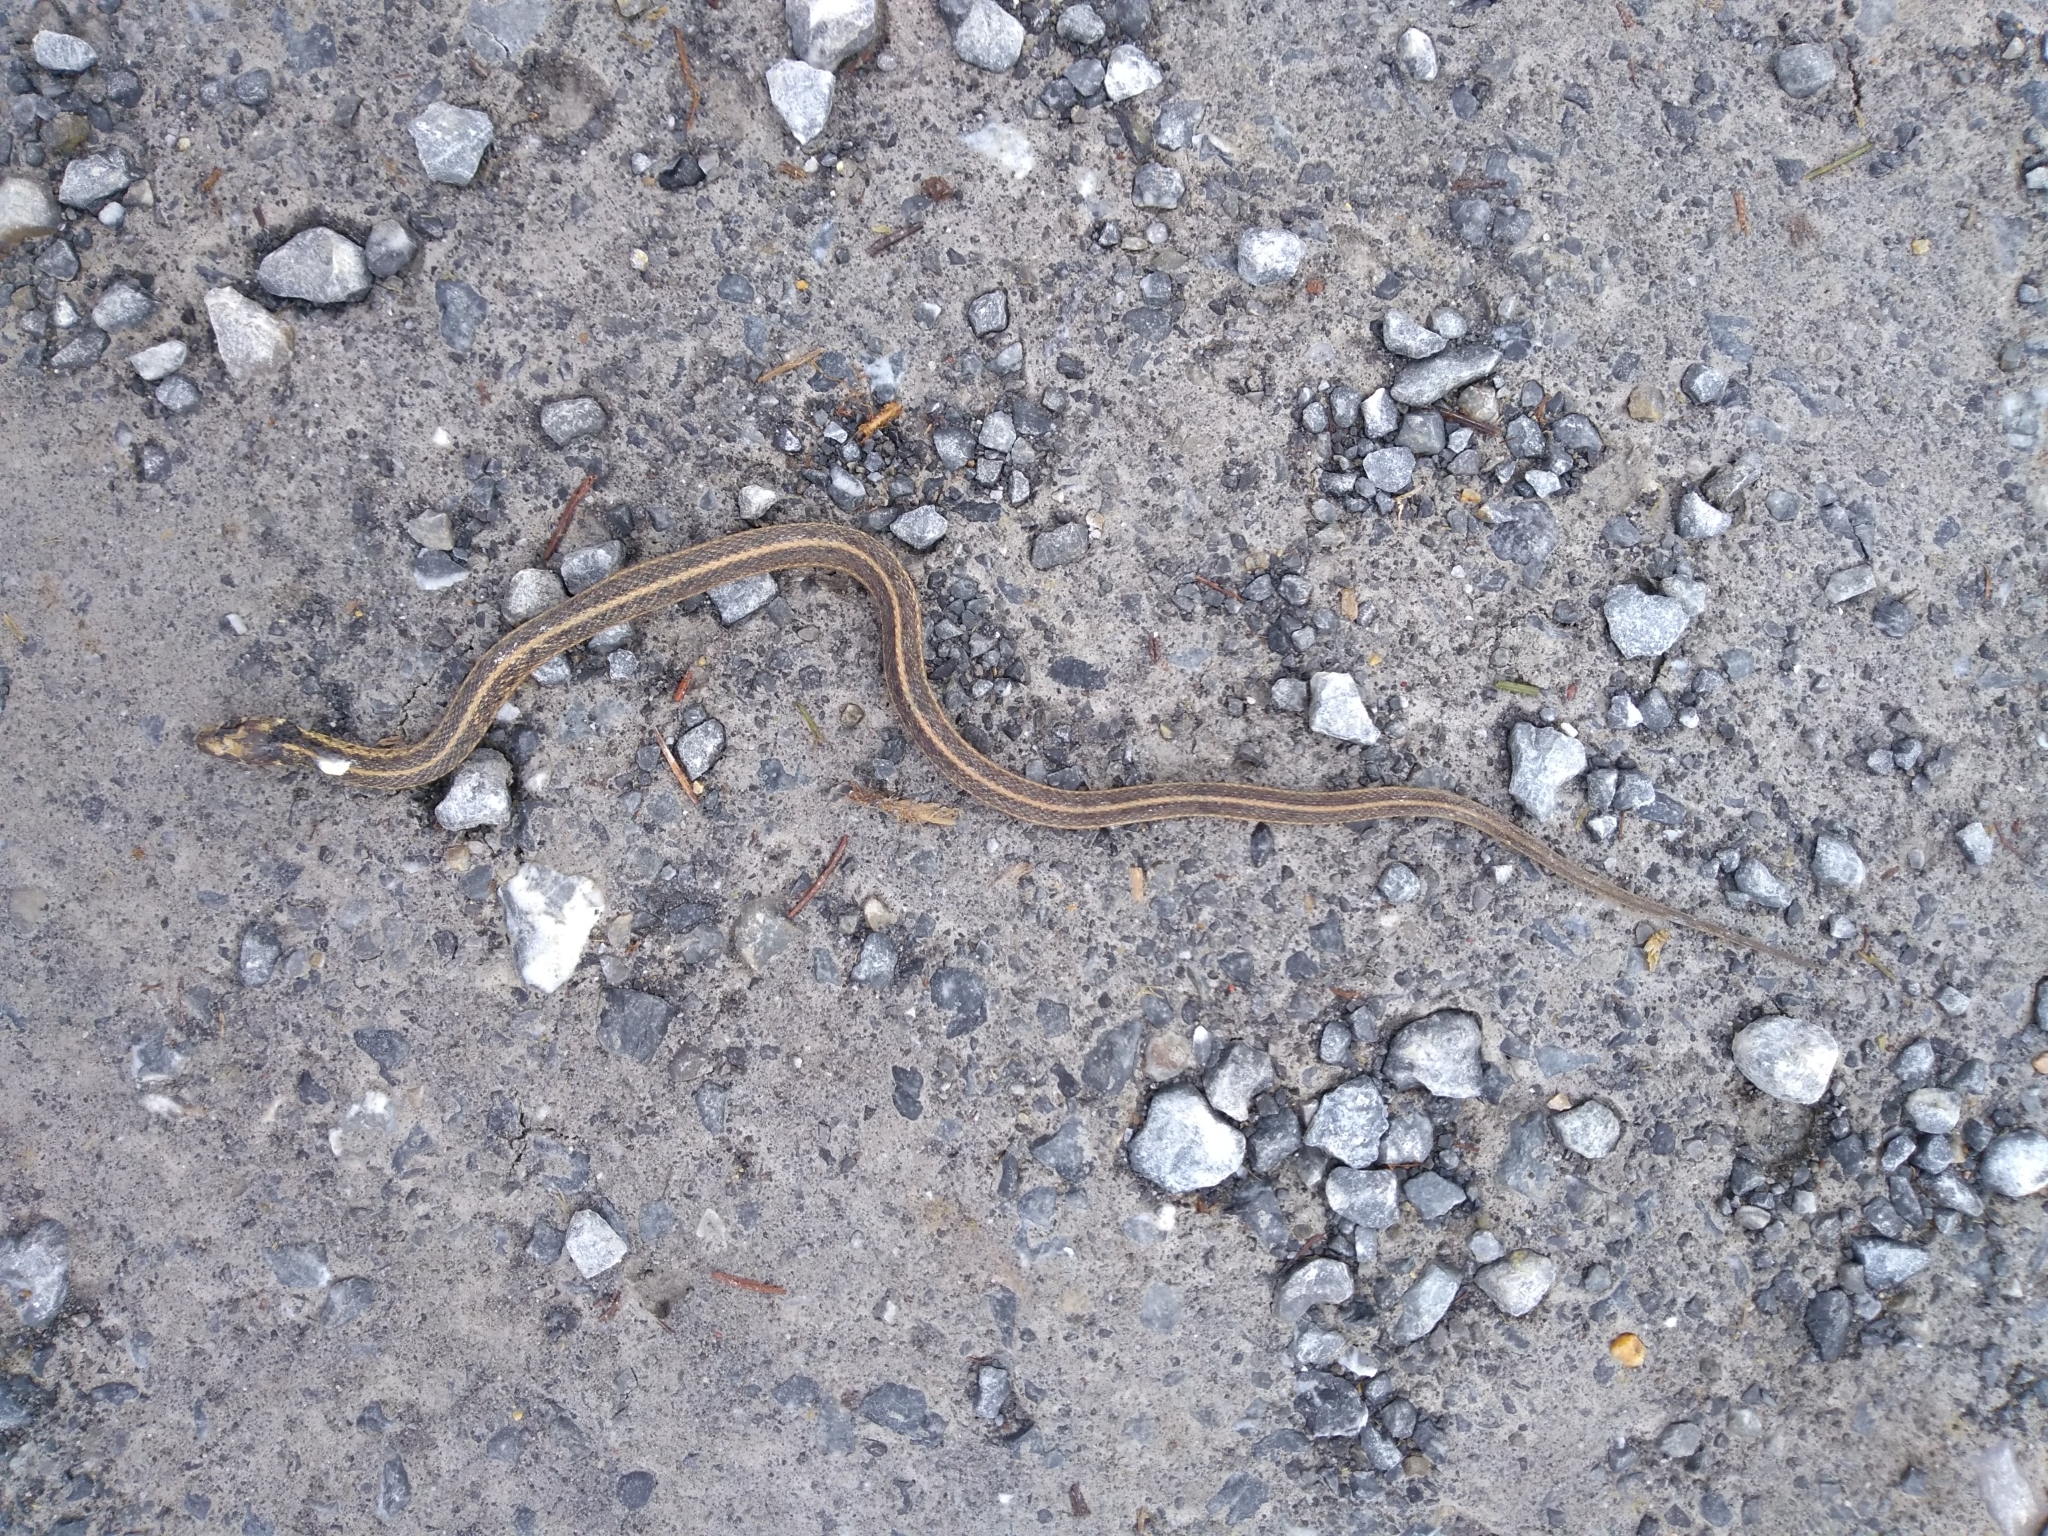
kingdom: Animalia
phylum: Chordata
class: Squamata
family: Colubridae
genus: Thamnophis
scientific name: Thamnophis sirtalis
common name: Common garter snake
